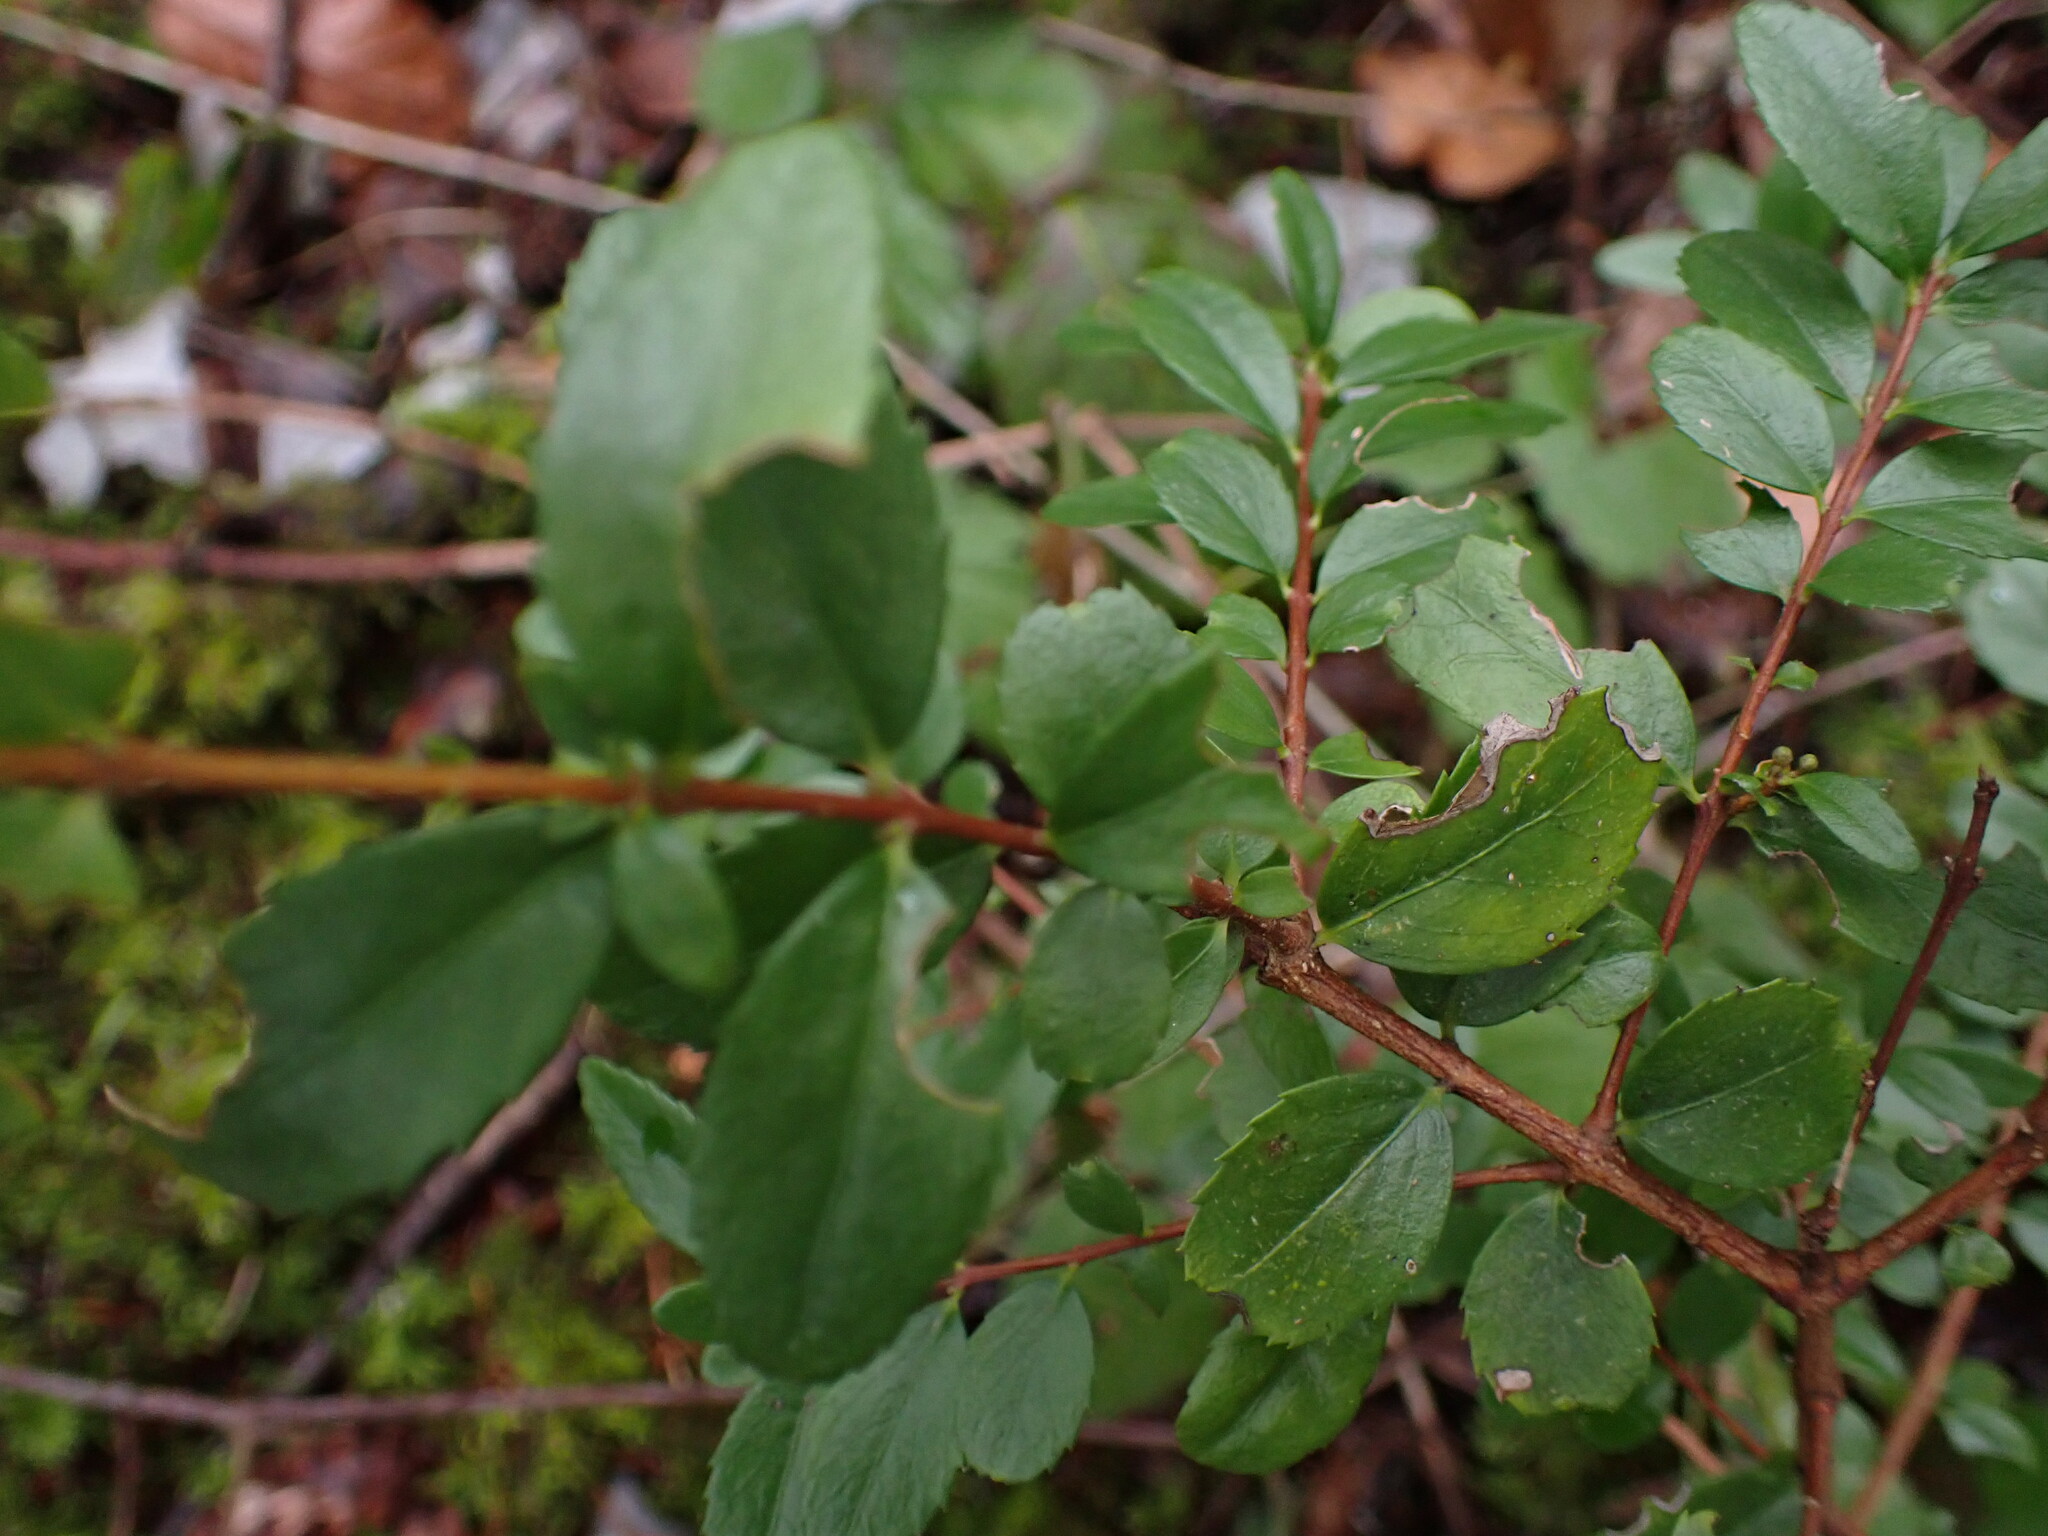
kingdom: Plantae
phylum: Tracheophyta
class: Magnoliopsida
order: Celastrales
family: Celastraceae
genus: Paxistima
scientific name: Paxistima myrsinites
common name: Mountain-lover
